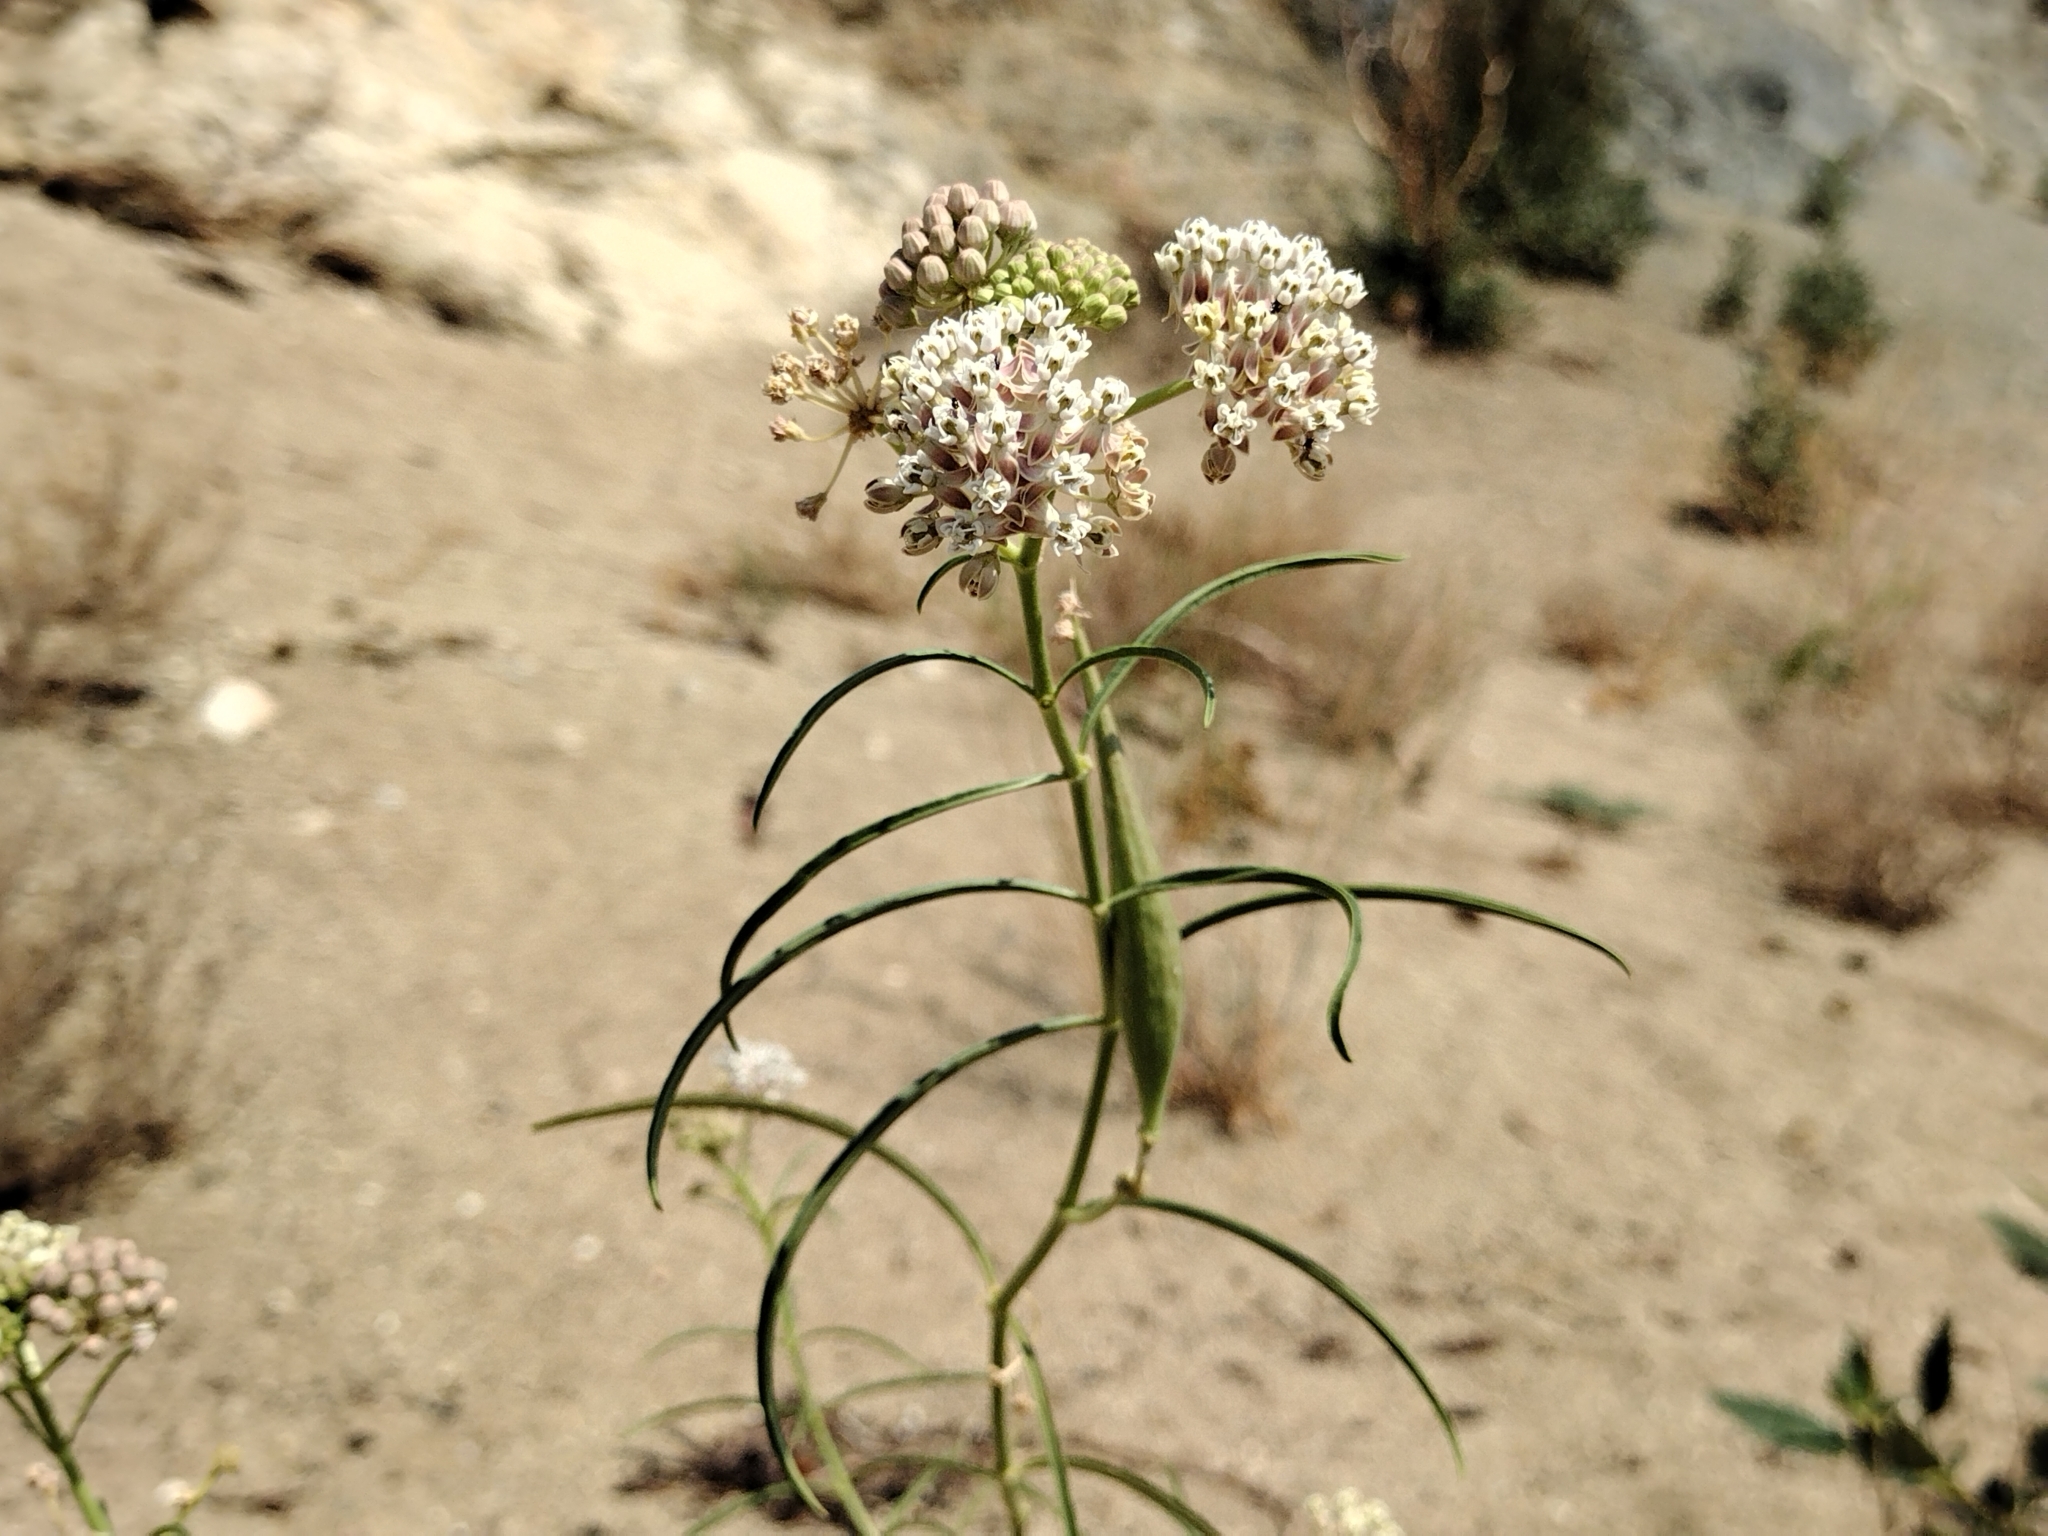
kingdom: Plantae
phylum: Tracheophyta
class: Magnoliopsida
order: Gentianales
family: Apocynaceae
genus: Asclepias
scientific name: Asclepias fascicularis
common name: Mexican milkweed
